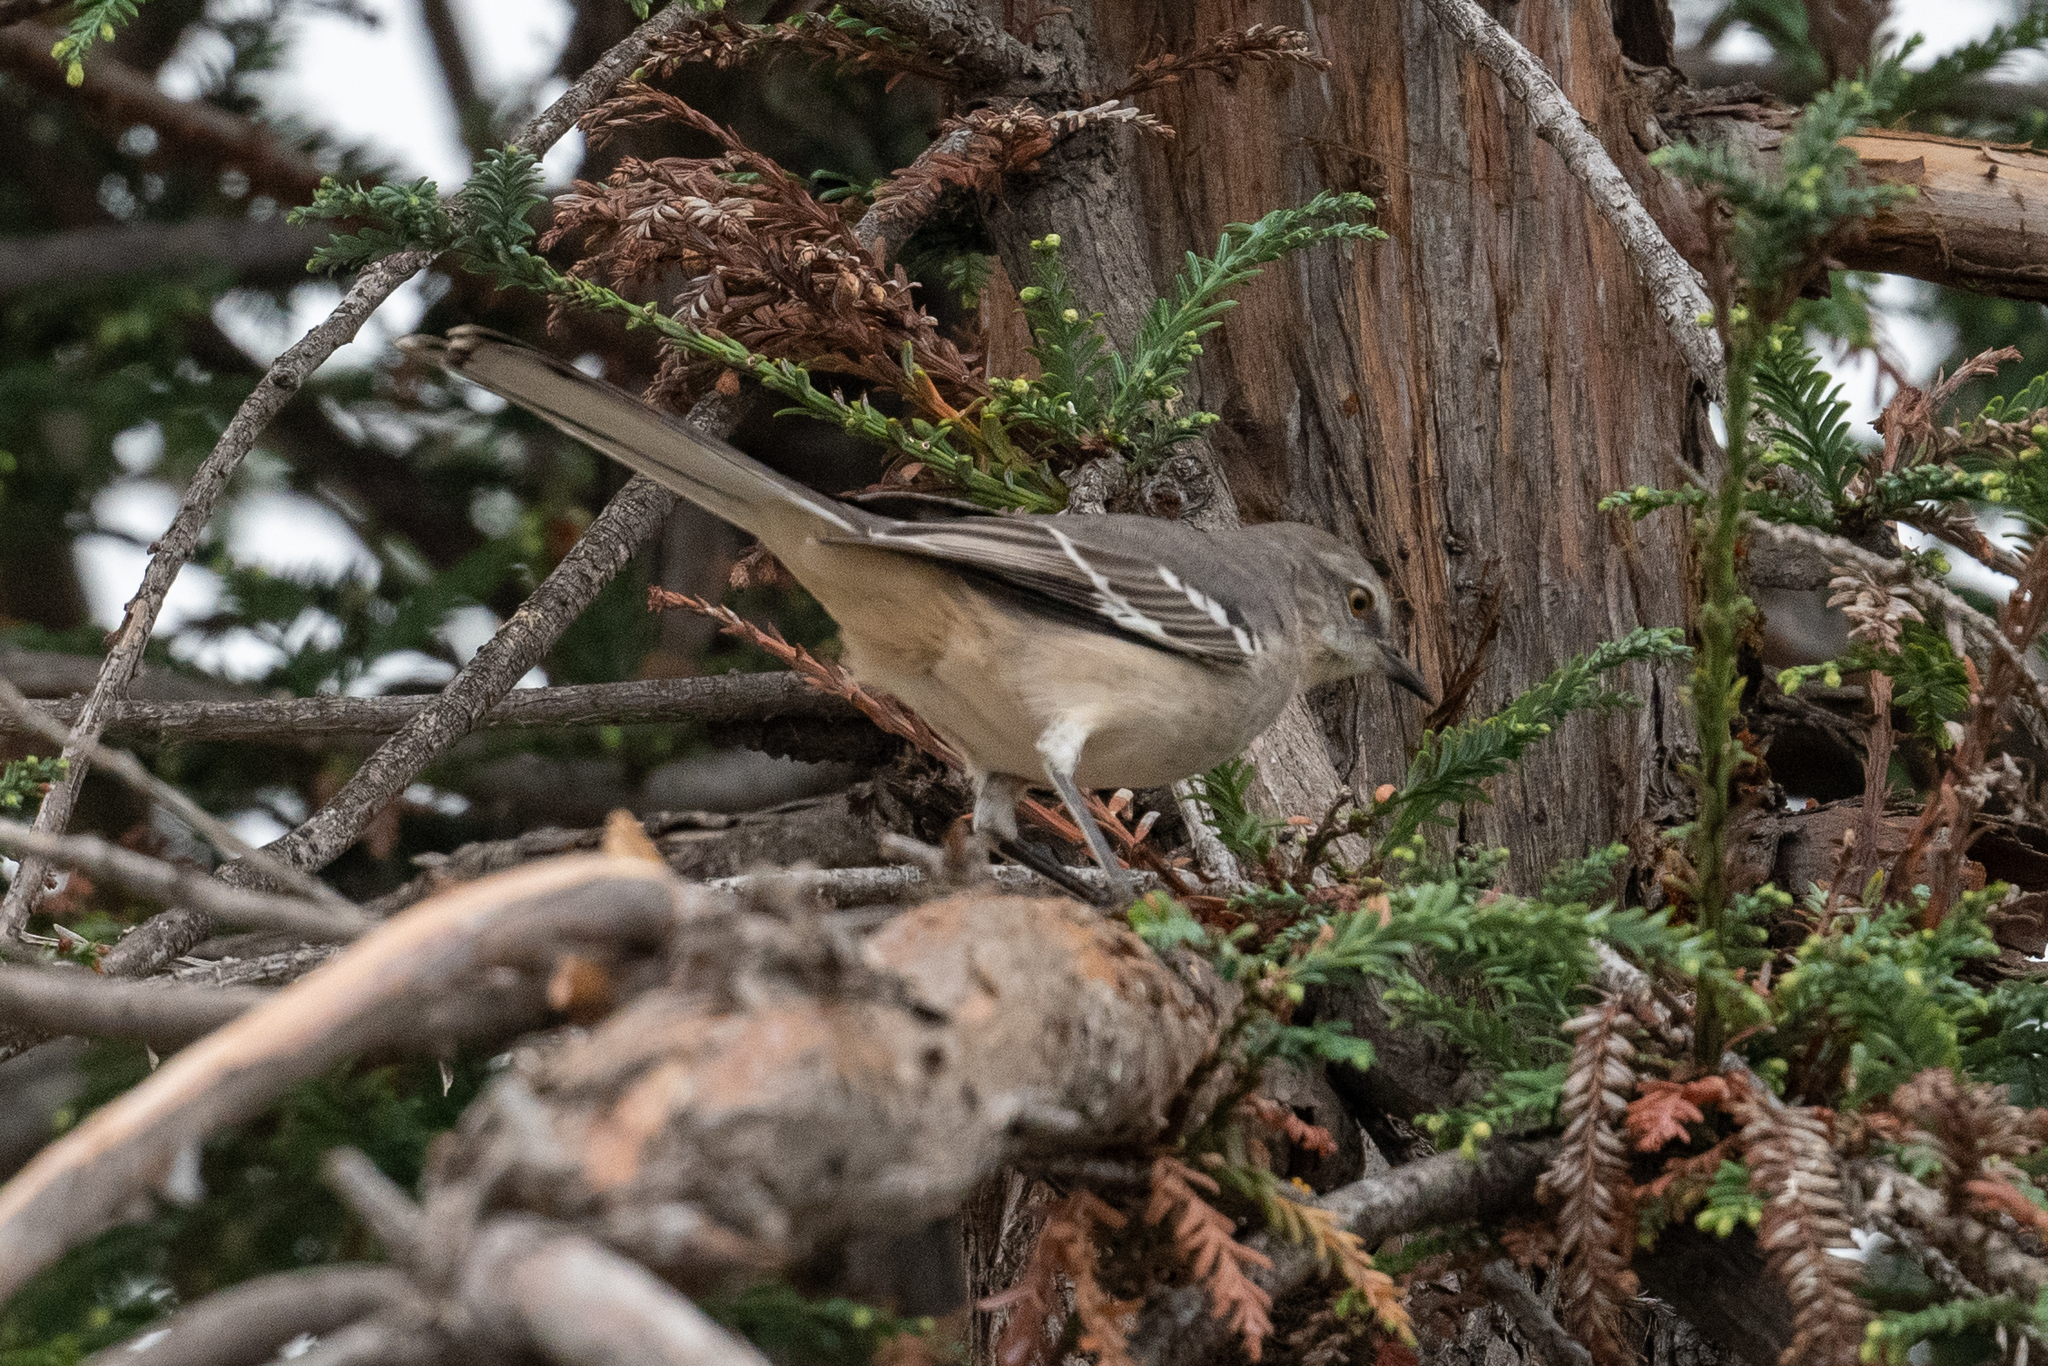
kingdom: Animalia
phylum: Chordata
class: Aves
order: Passeriformes
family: Mimidae
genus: Mimus
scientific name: Mimus polyglottos
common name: Northern mockingbird
